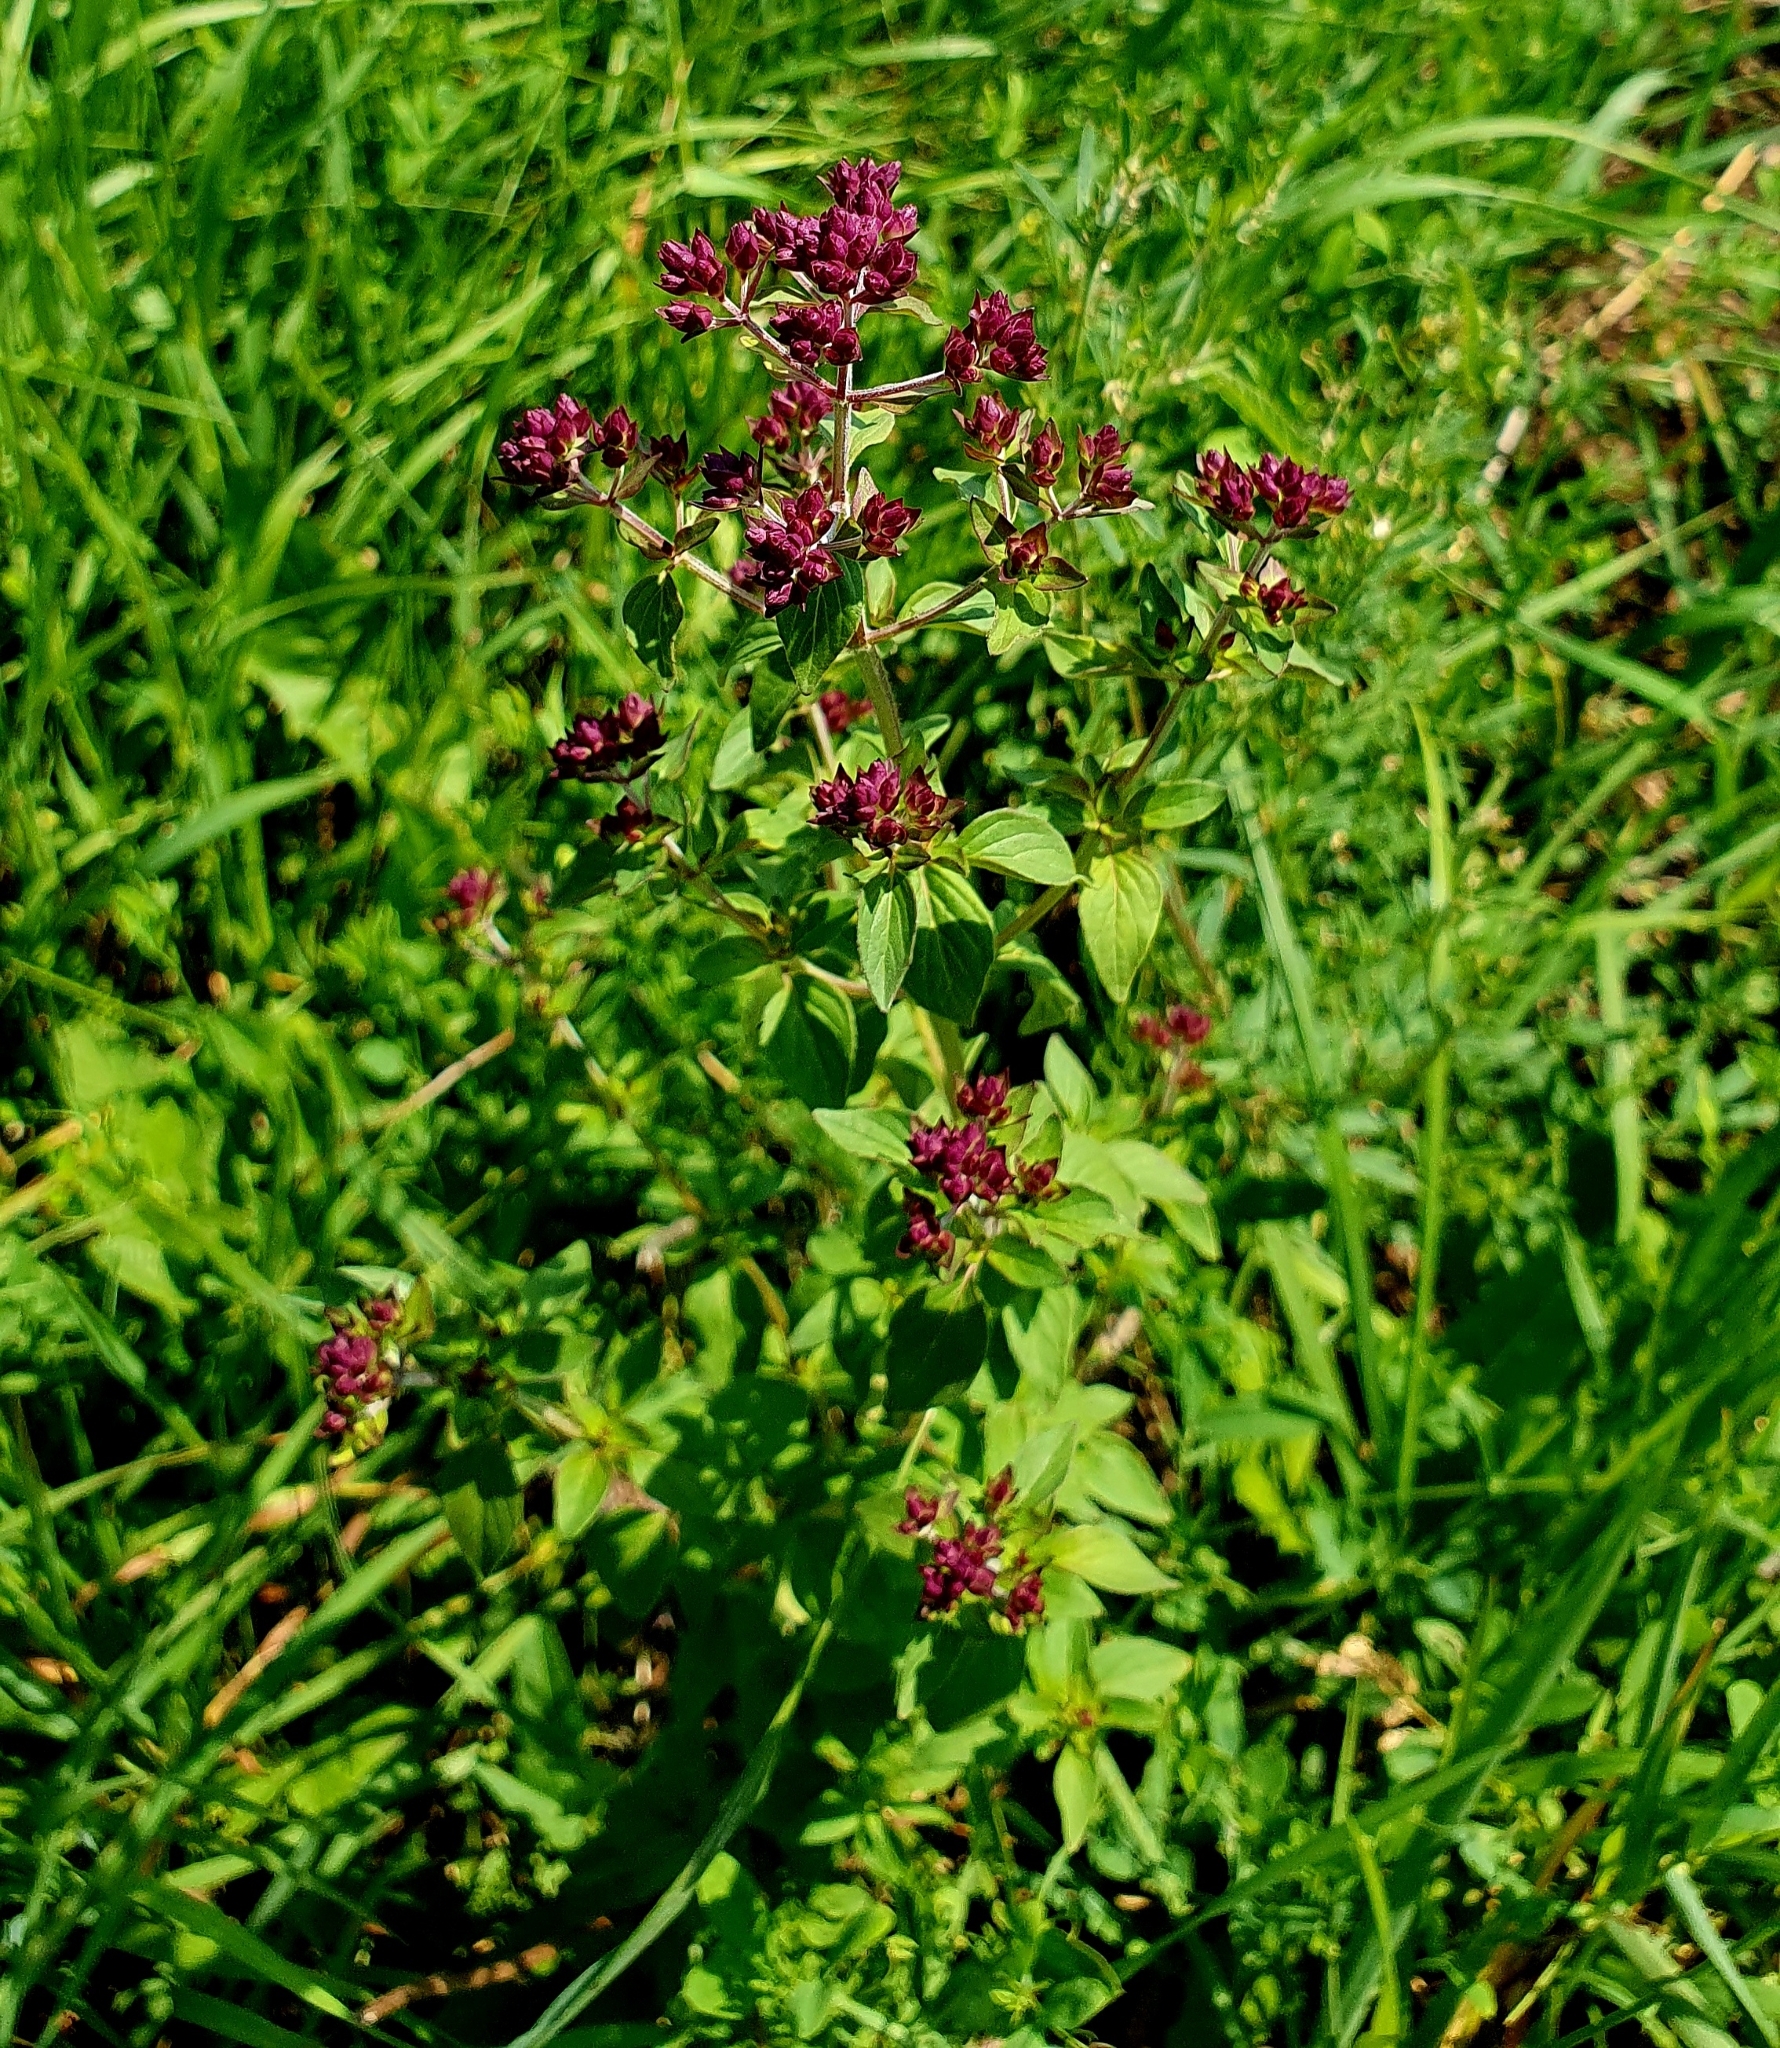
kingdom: Plantae
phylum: Tracheophyta
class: Magnoliopsida
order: Lamiales
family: Lamiaceae
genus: Origanum
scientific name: Origanum vulgare
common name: Wild marjoram
